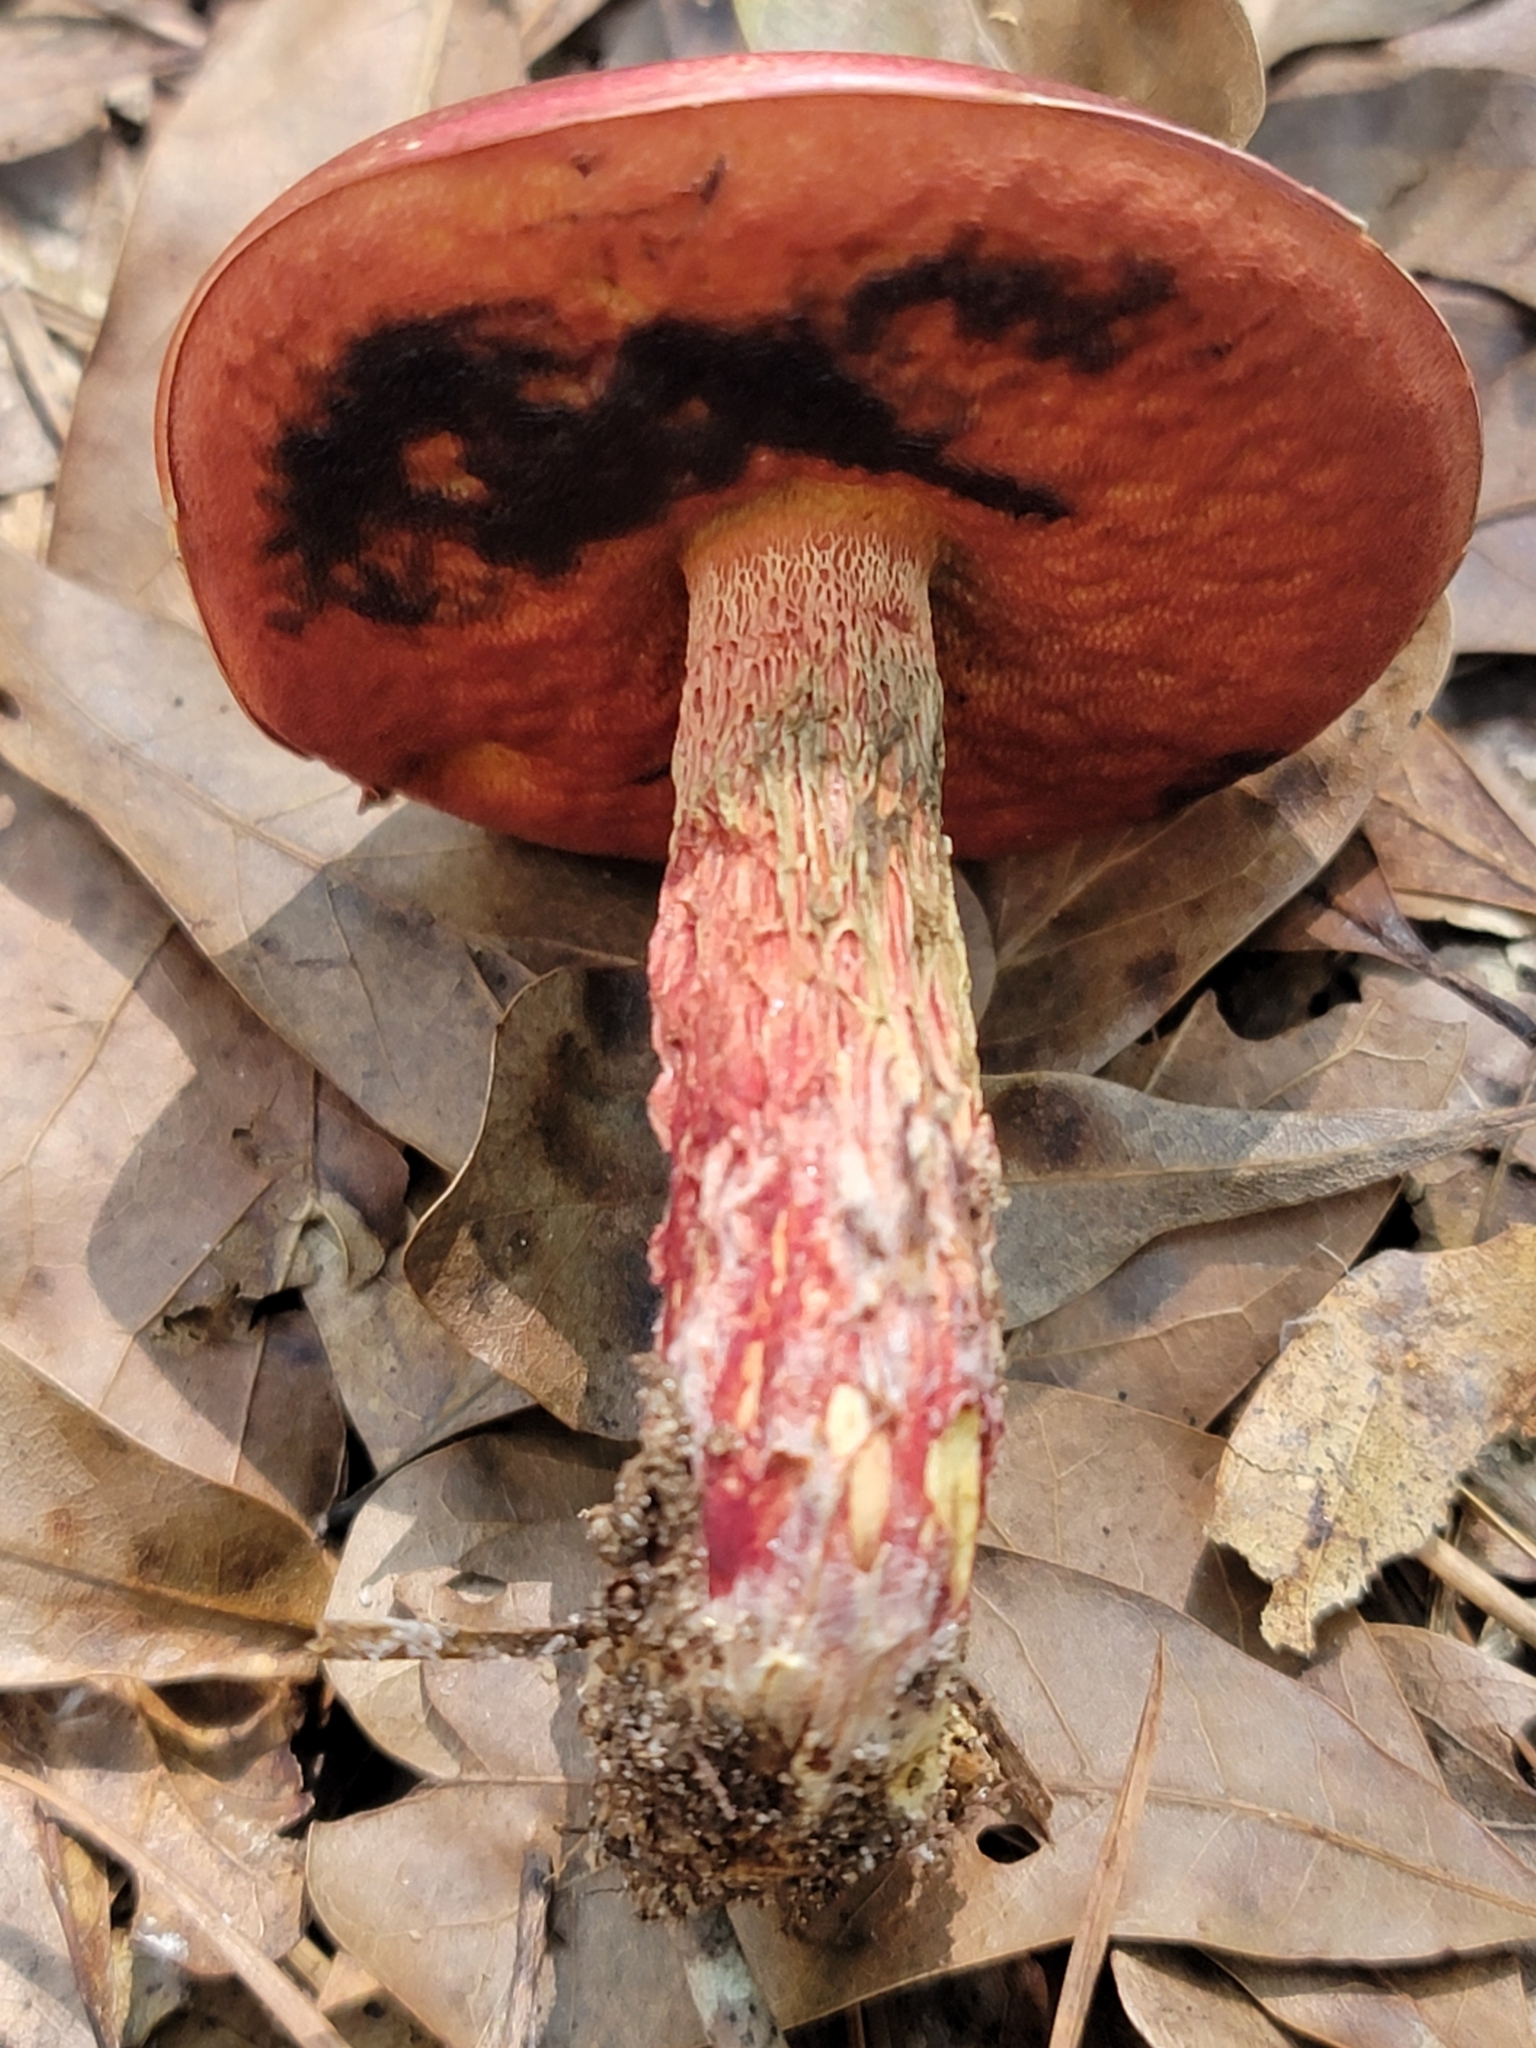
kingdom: Fungi
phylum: Basidiomycota
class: Agaricomycetes
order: Boletales
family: Boletaceae
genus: Butyriboletus
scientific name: Butyriboletus frostii
